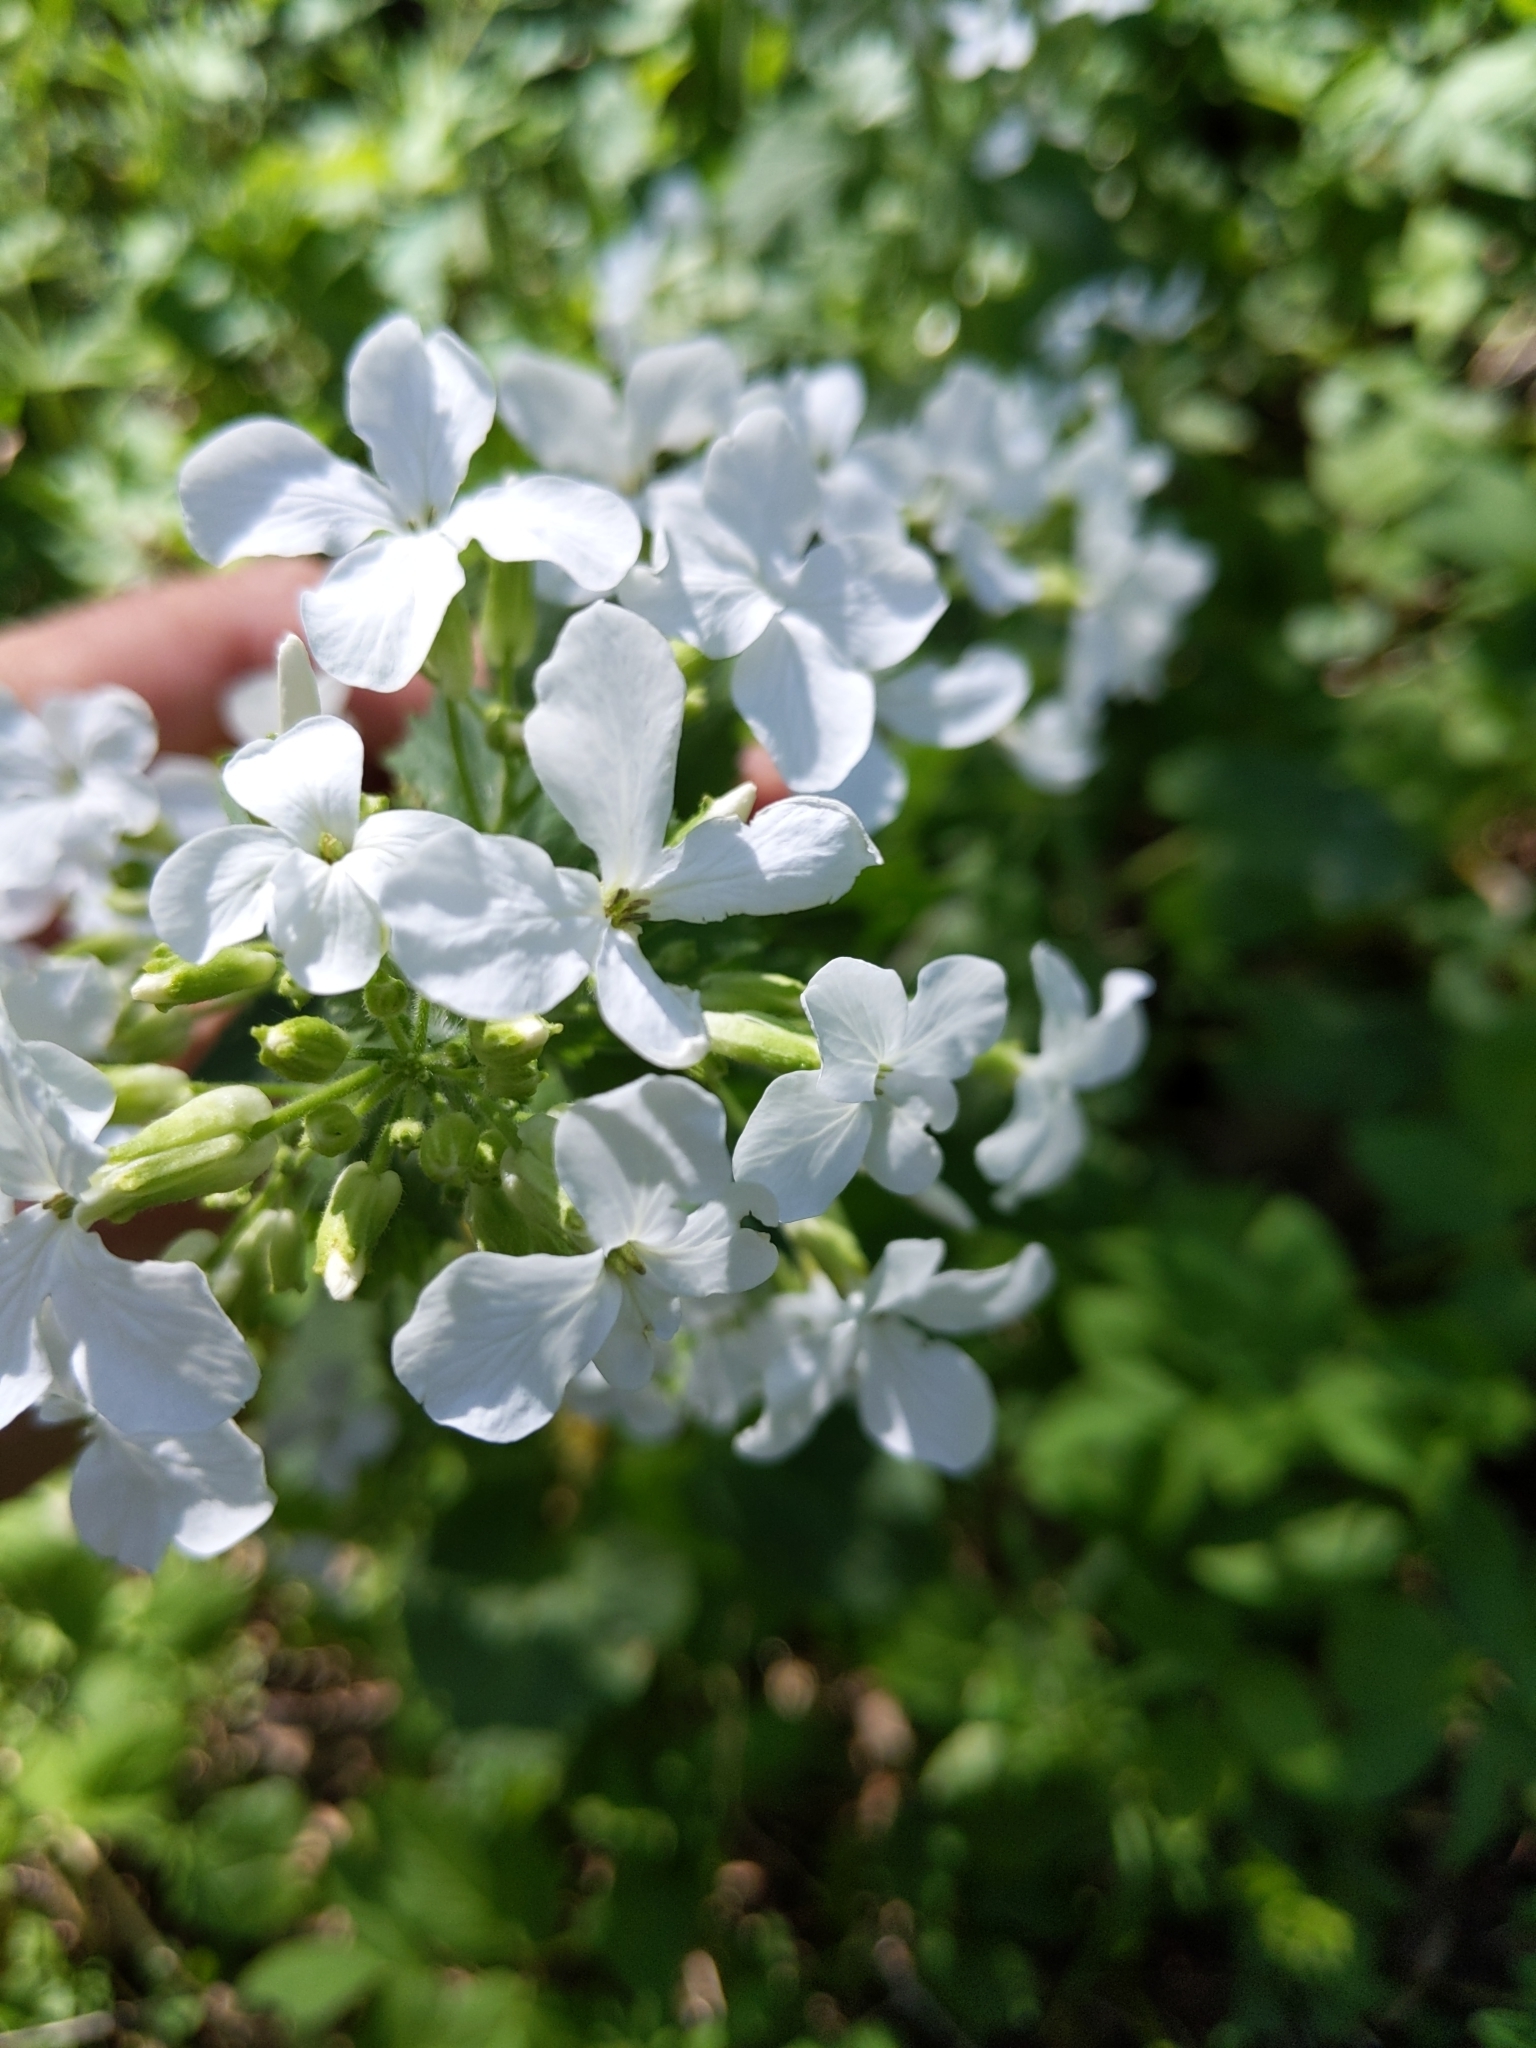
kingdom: Plantae
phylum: Tracheophyta
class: Magnoliopsida
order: Brassicales
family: Brassicaceae
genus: Lunaria
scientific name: Lunaria annua
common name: Honesty
